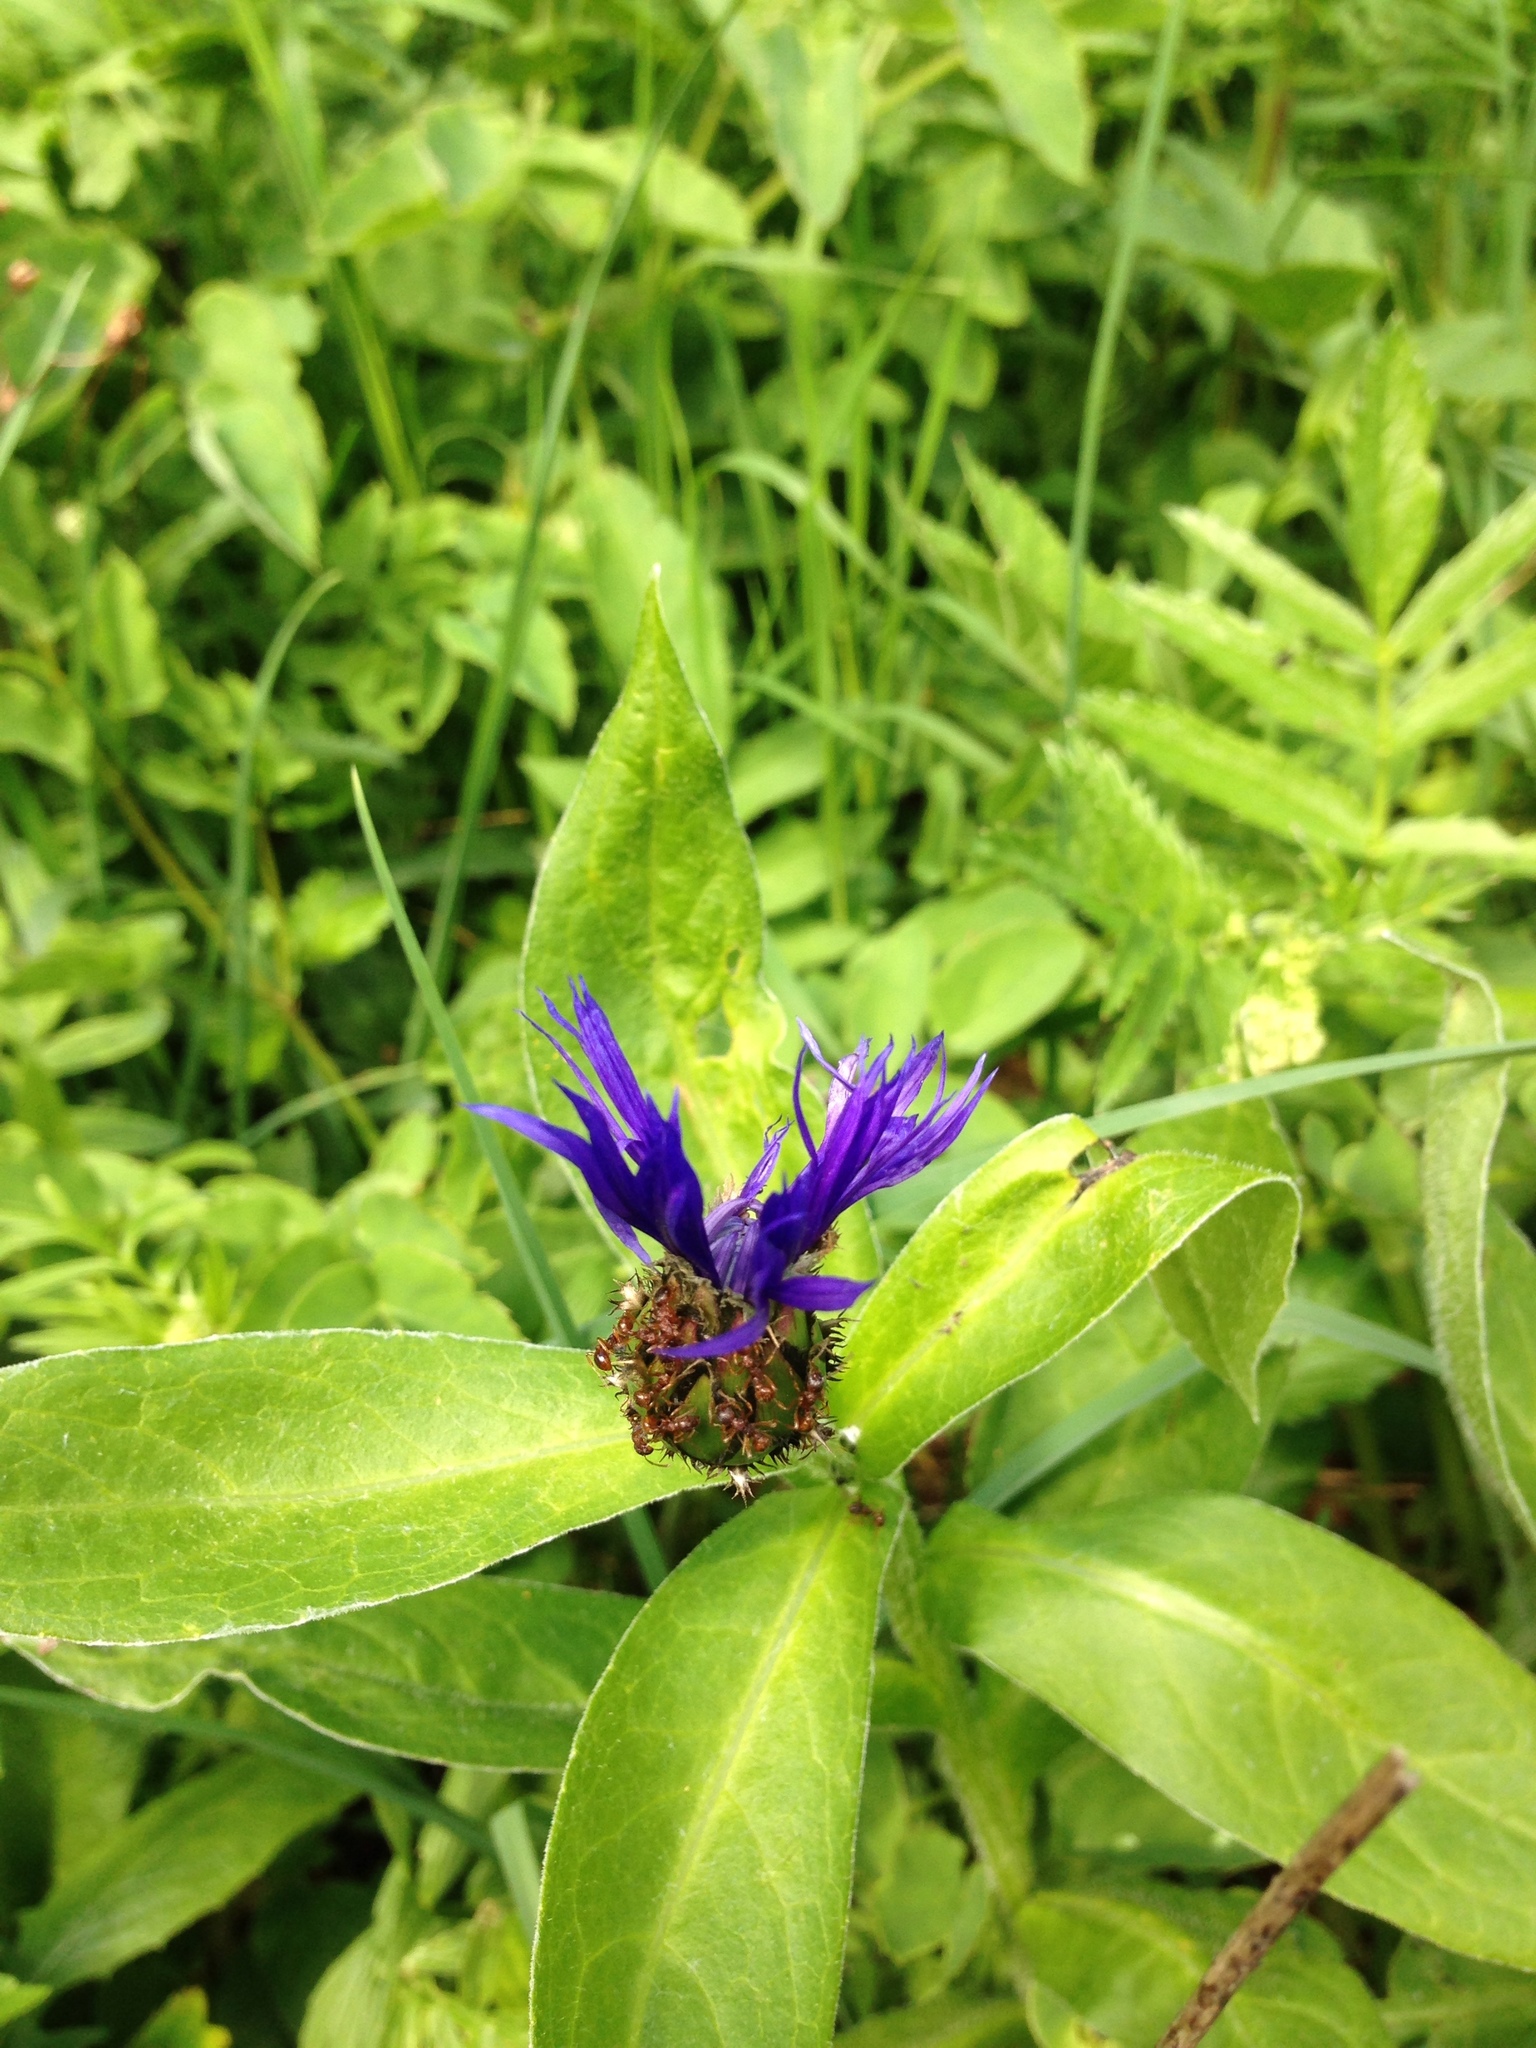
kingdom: Plantae
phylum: Tracheophyta
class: Magnoliopsida
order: Asterales
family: Asteraceae
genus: Centaurea
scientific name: Centaurea montana
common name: Perennial cornflower
